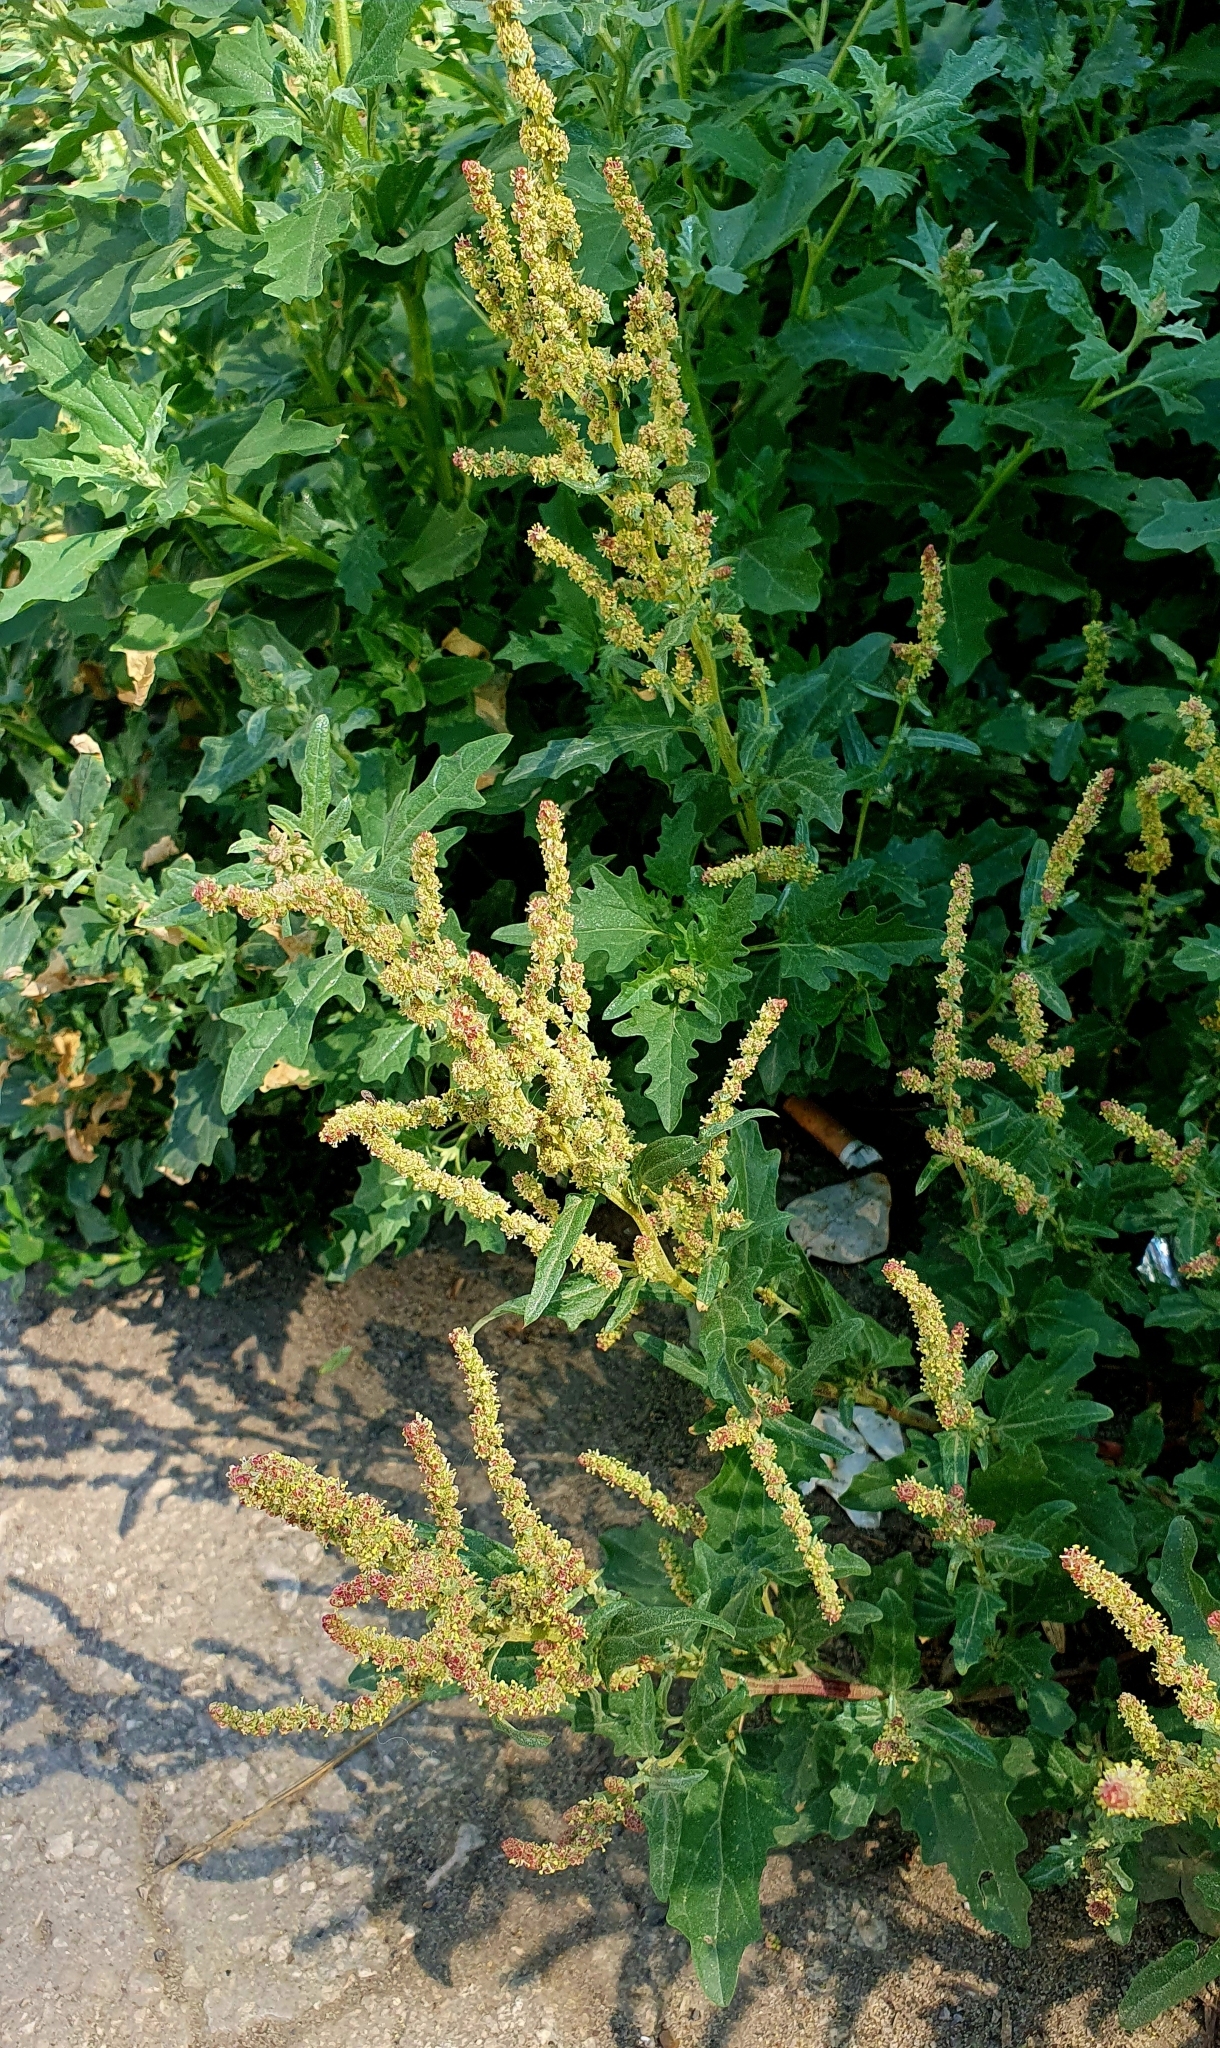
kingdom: Plantae
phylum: Tracheophyta
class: Magnoliopsida
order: Caryophyllales
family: Amaranthaceae
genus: Atriplex
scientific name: Atriplex tatarica
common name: Tatarian orache
